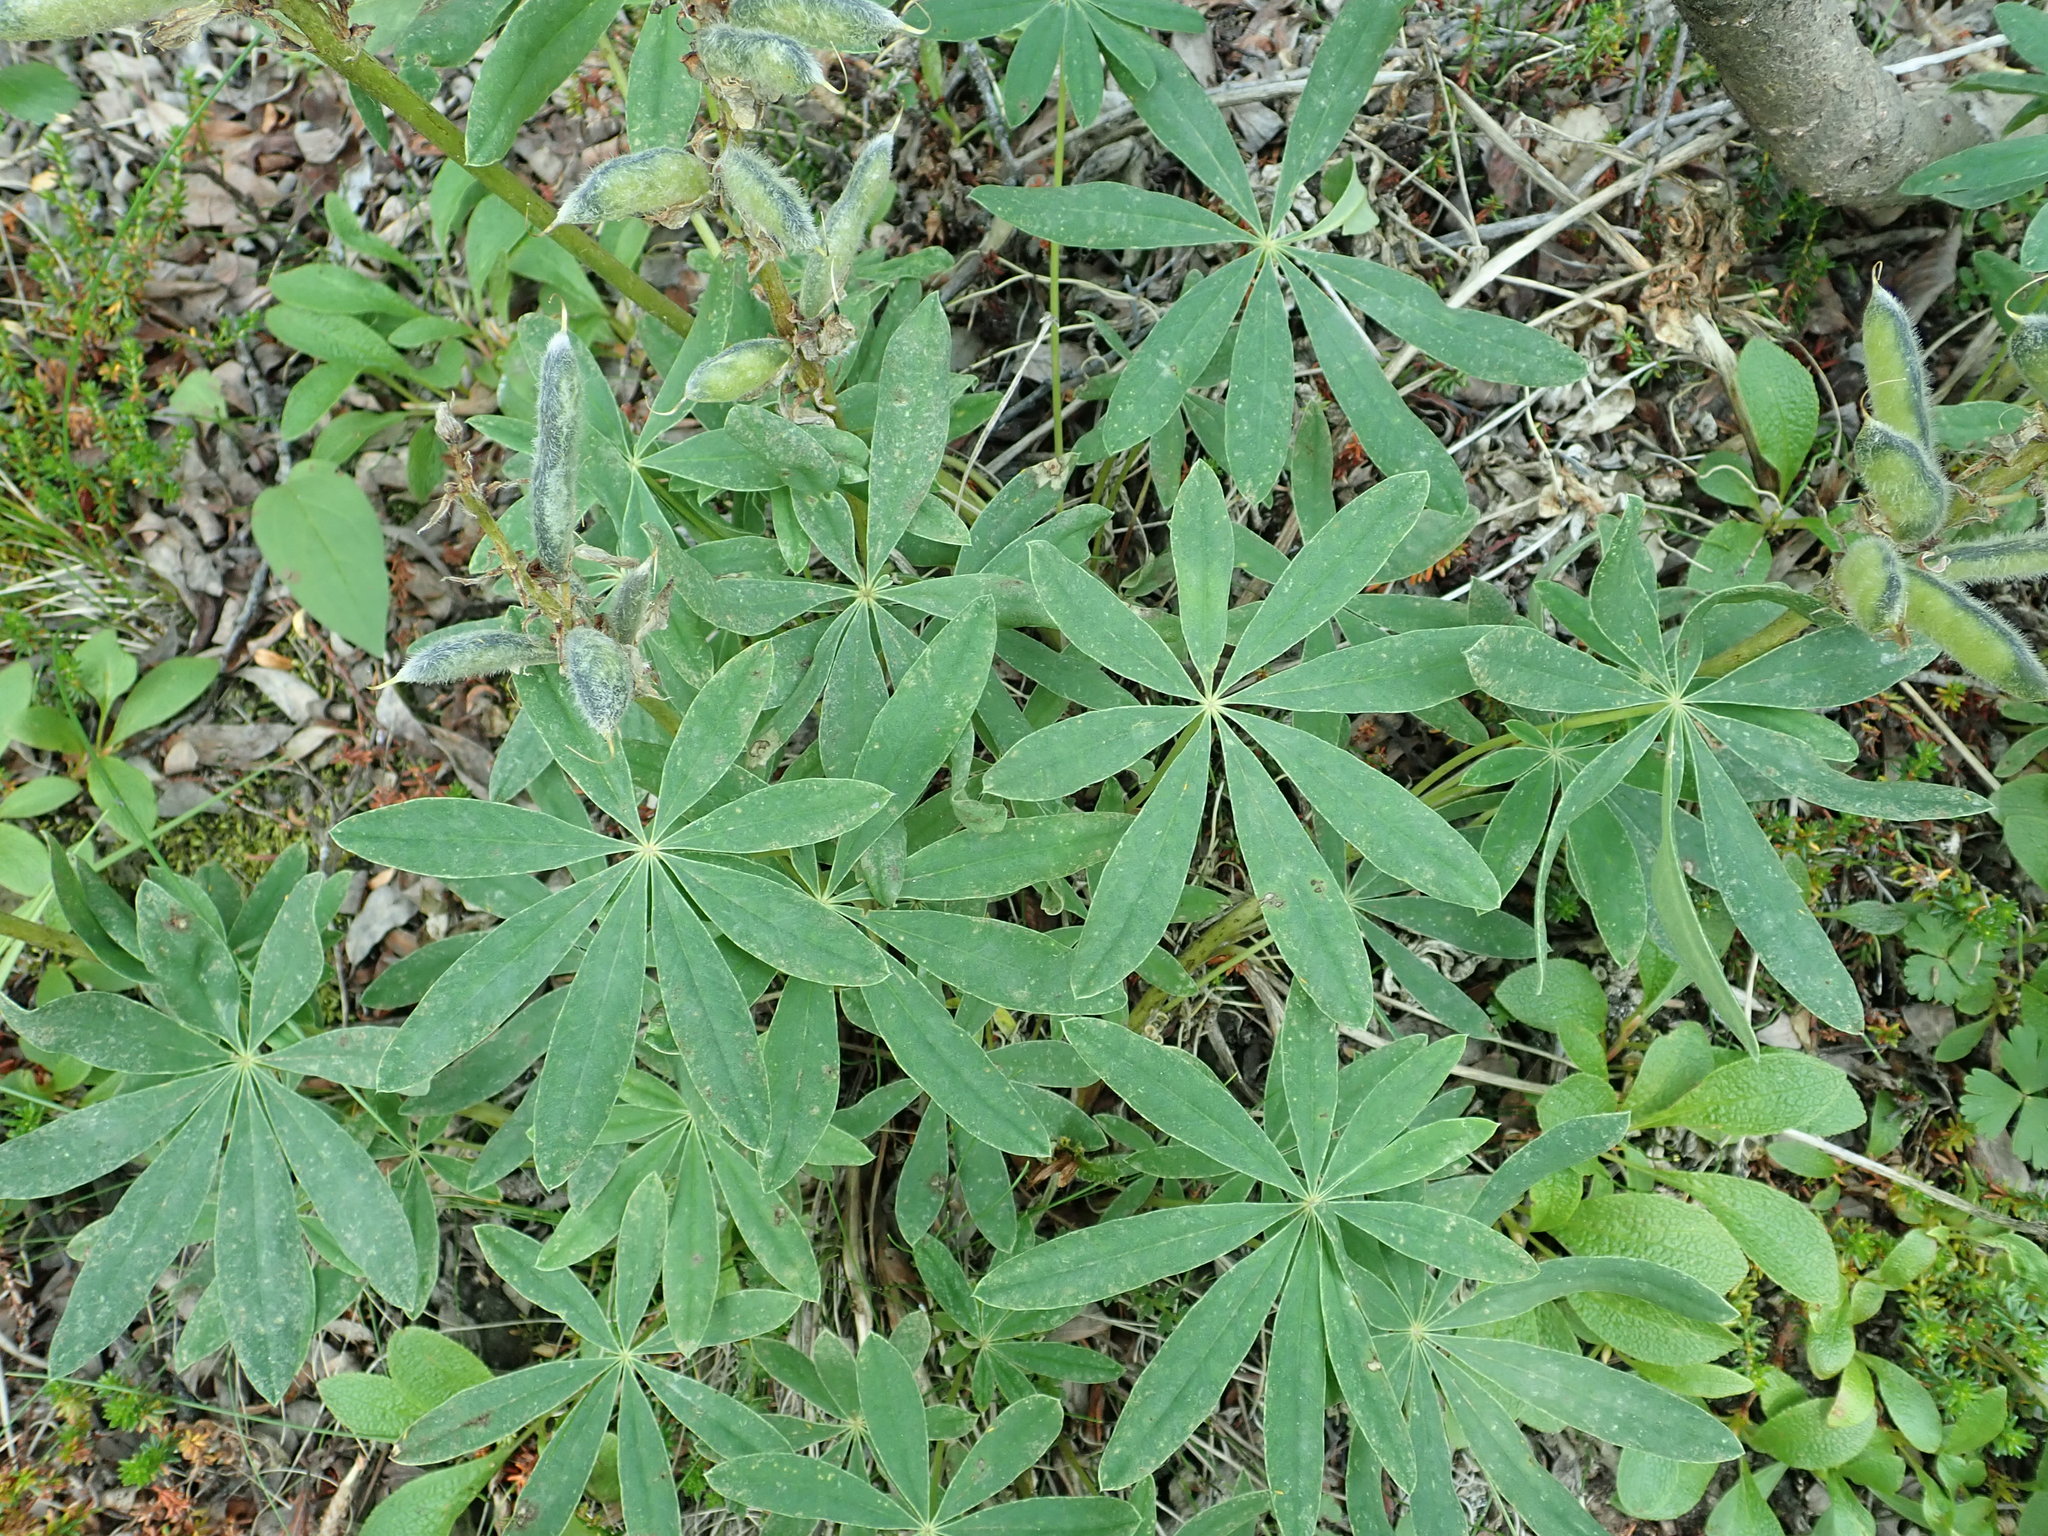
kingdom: Plantae
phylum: Tracheophyta
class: Magnoliopsida
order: Fabales
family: Fabaceae
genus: Lupinus
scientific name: Lupinus arcticus
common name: Arctic lupine
